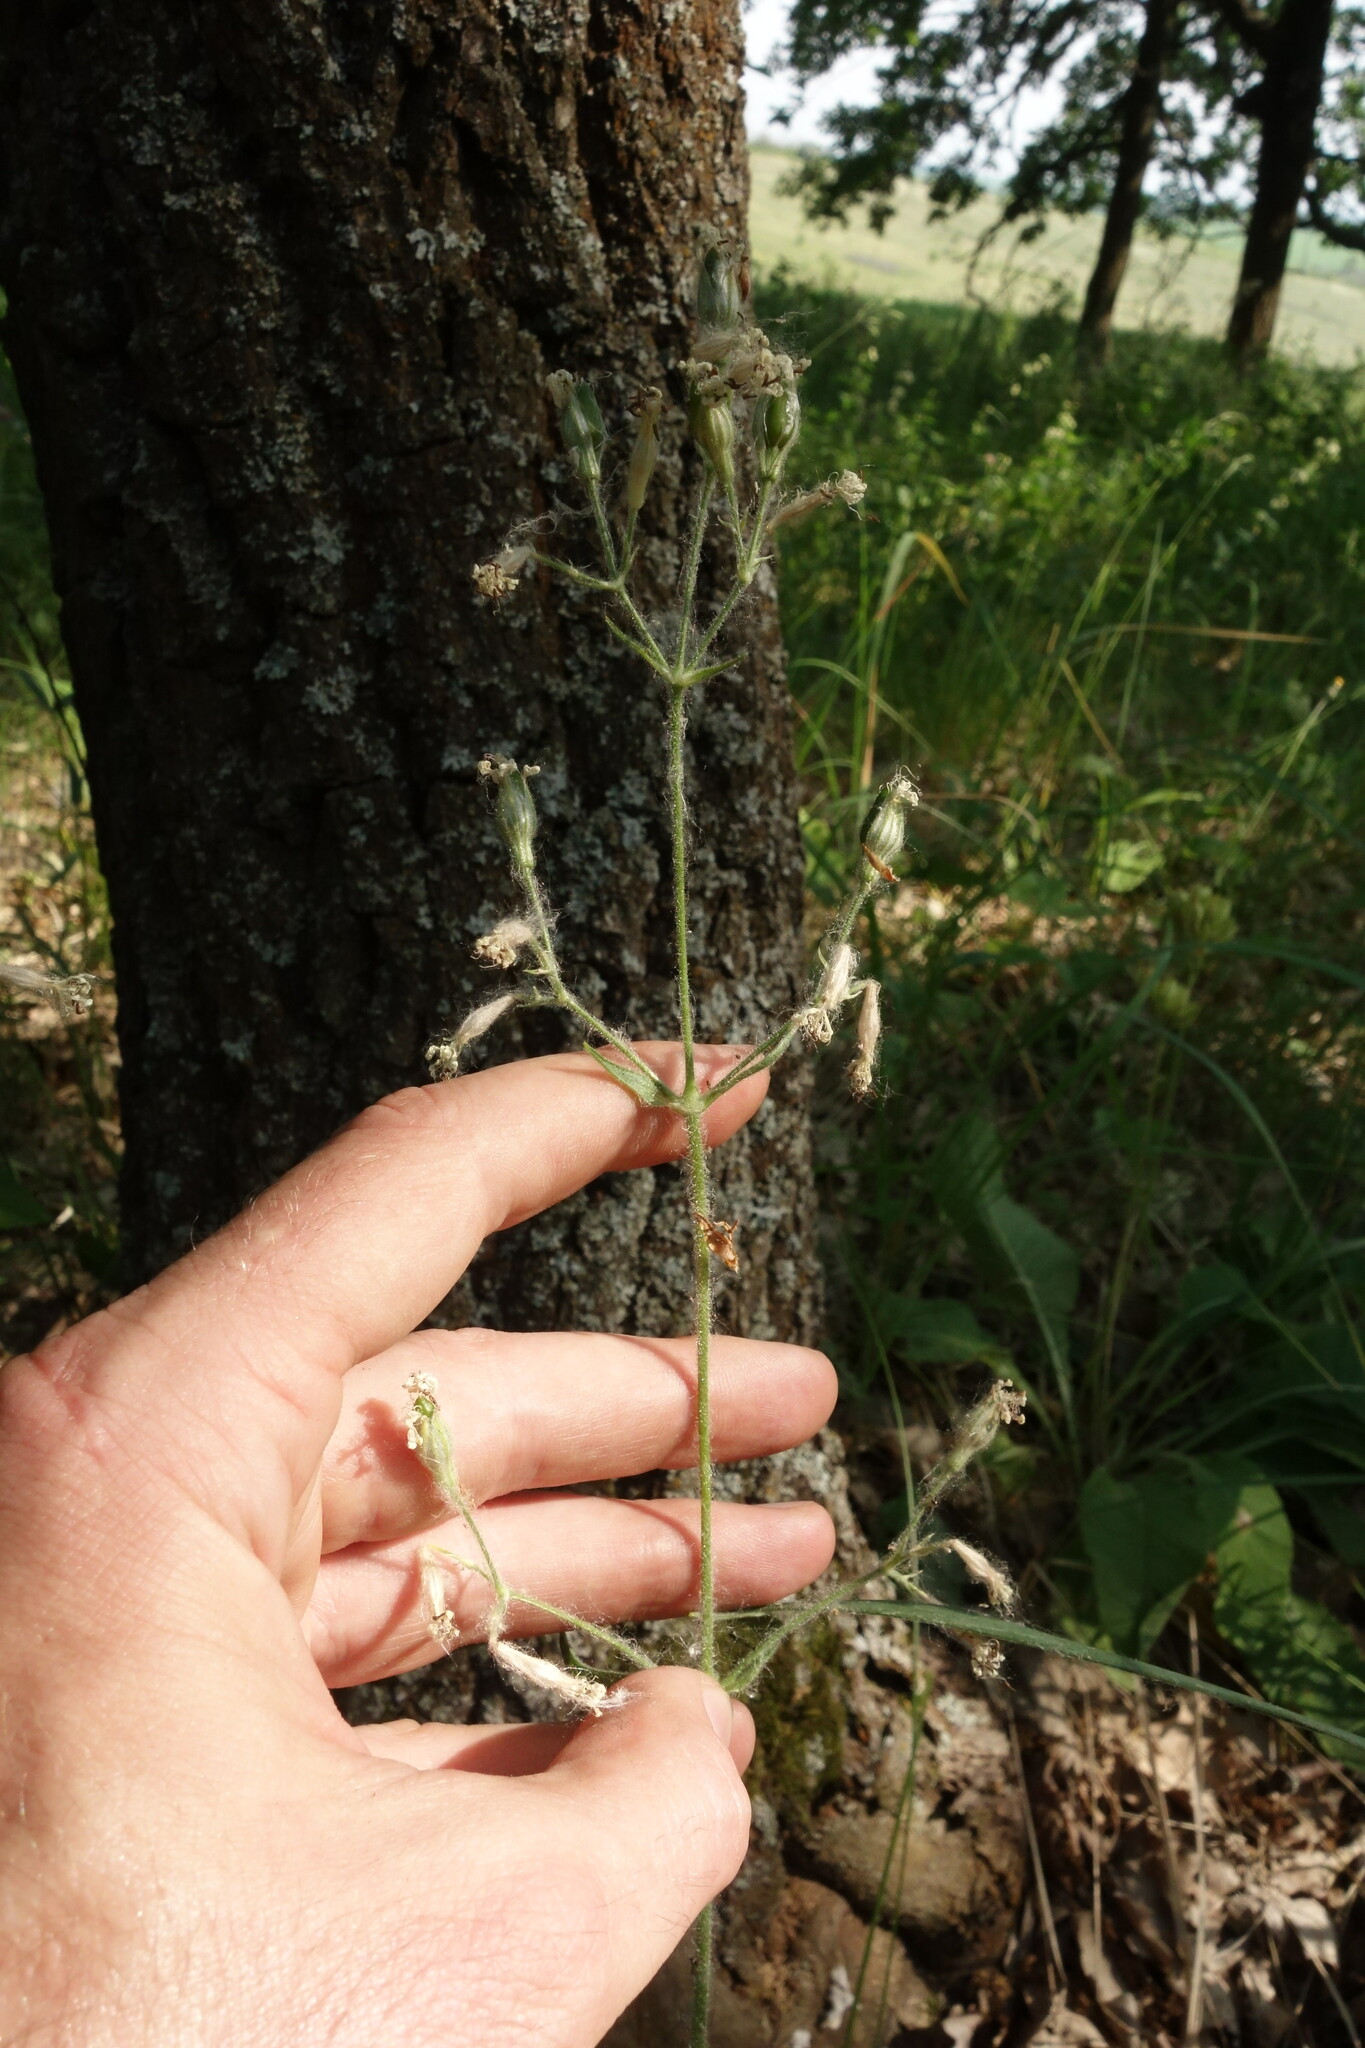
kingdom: Plantae
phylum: Tracheophyta
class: Magnoliopsida
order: Caryophyllales
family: Caryophyllaceae
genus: Silene
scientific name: Silene nutans
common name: Nottingham catchfly
